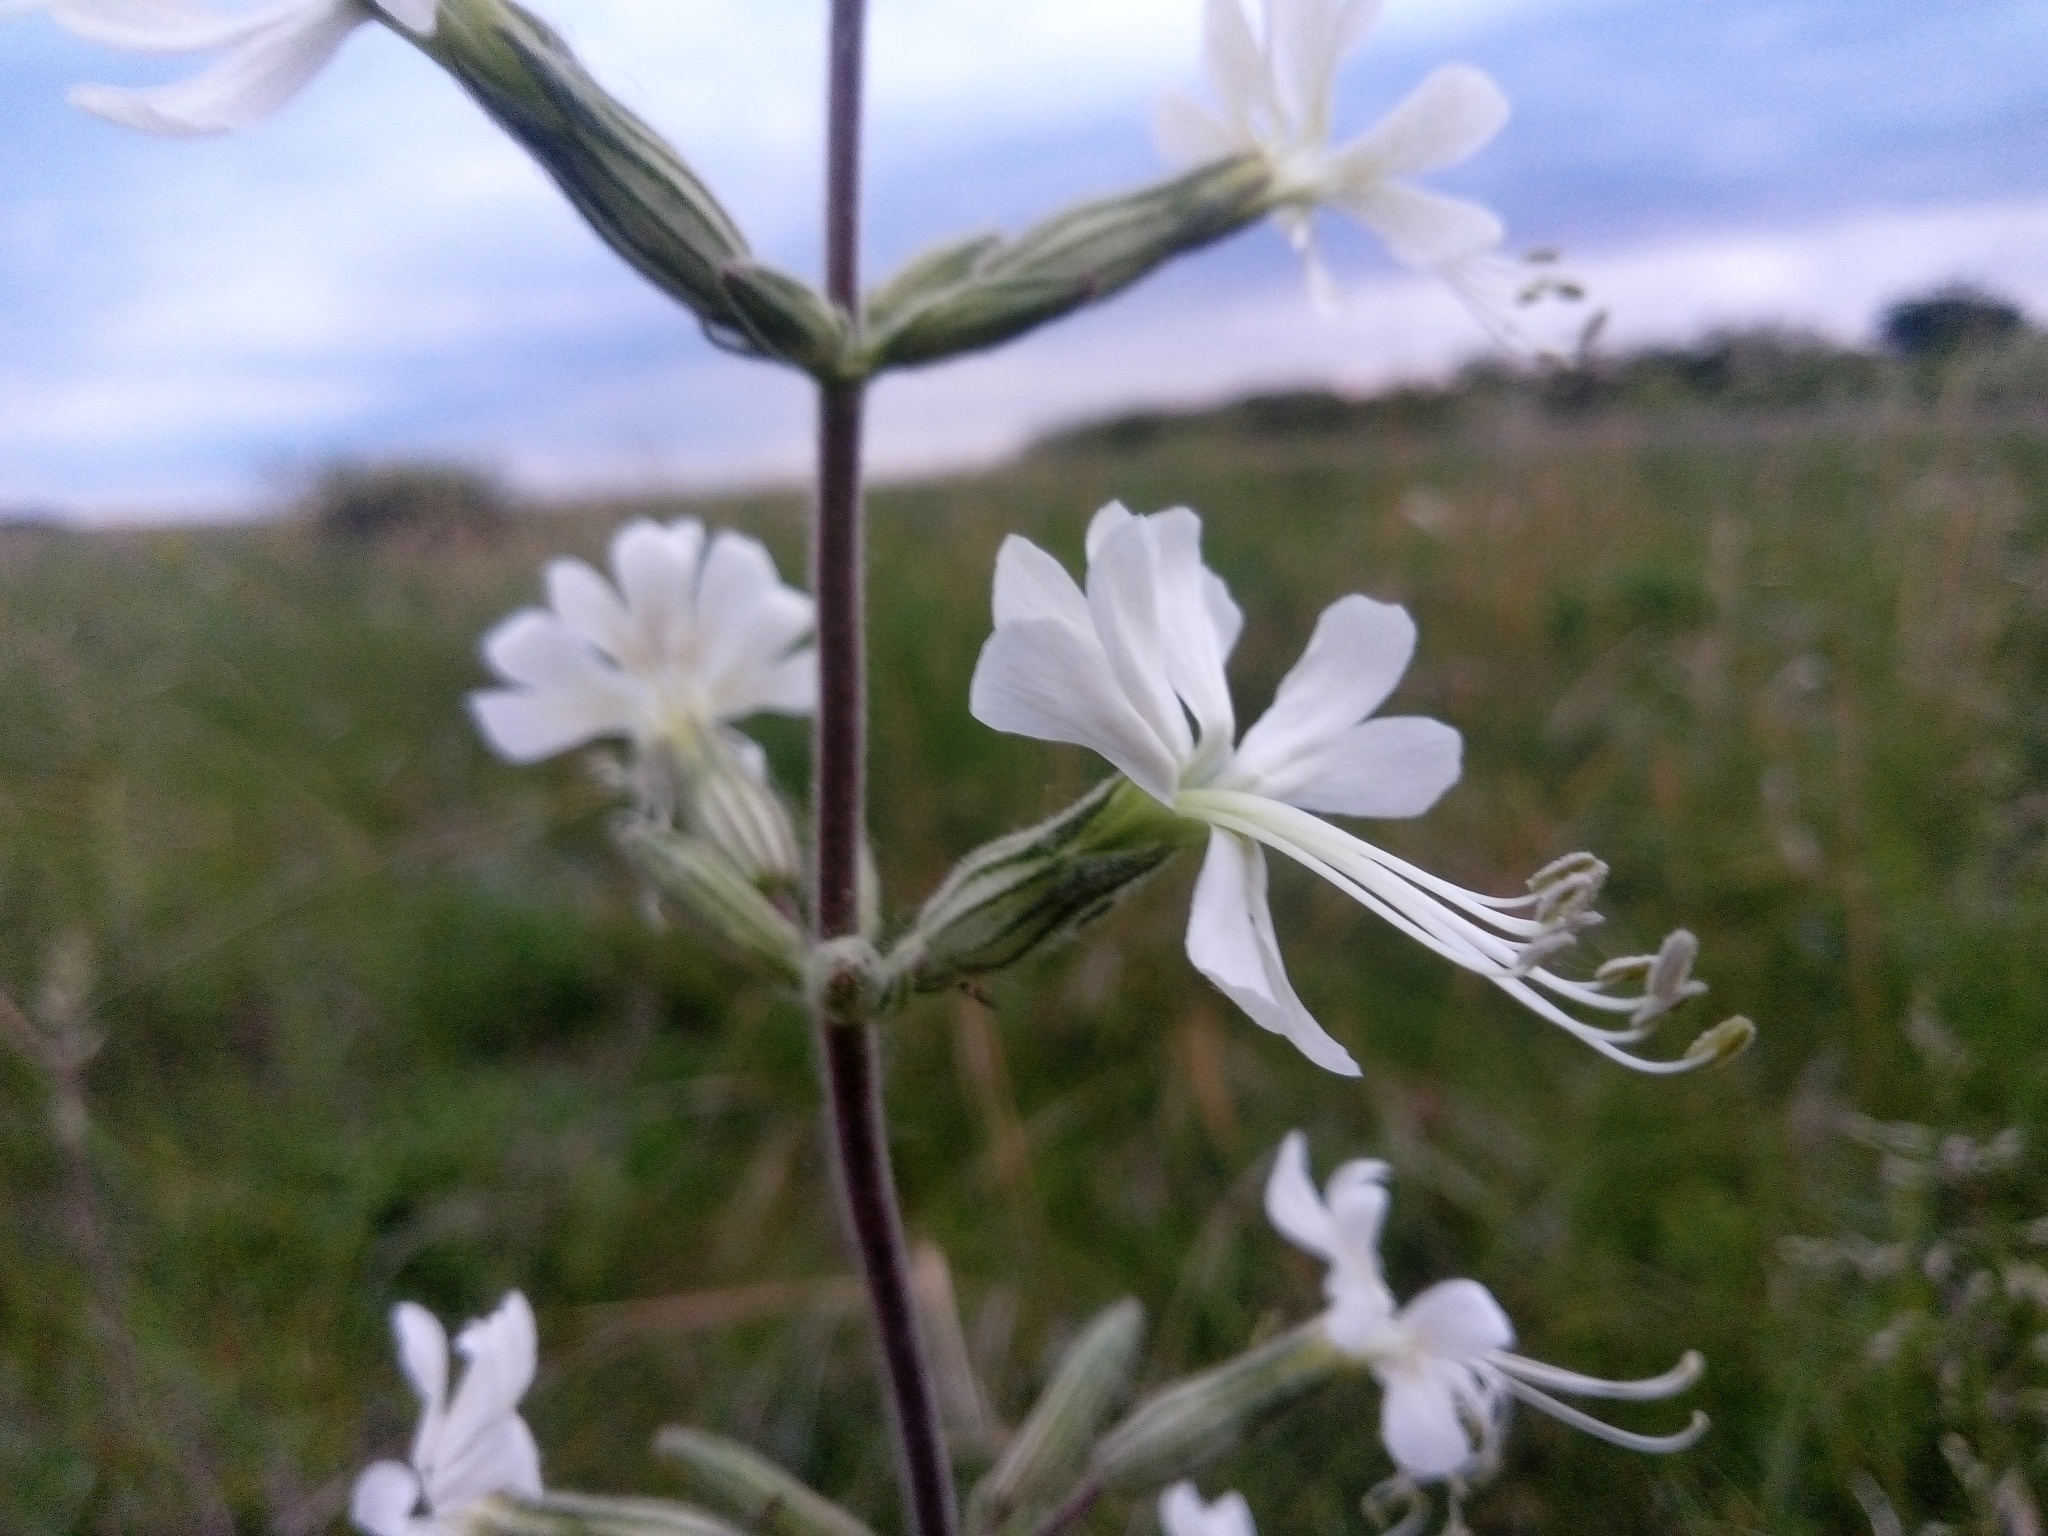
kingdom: Plantae
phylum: Tracheophyta
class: Magnoliopsida
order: Caryophyllales
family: Caryophyllaceae
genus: Silene
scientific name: Silene viscosa
